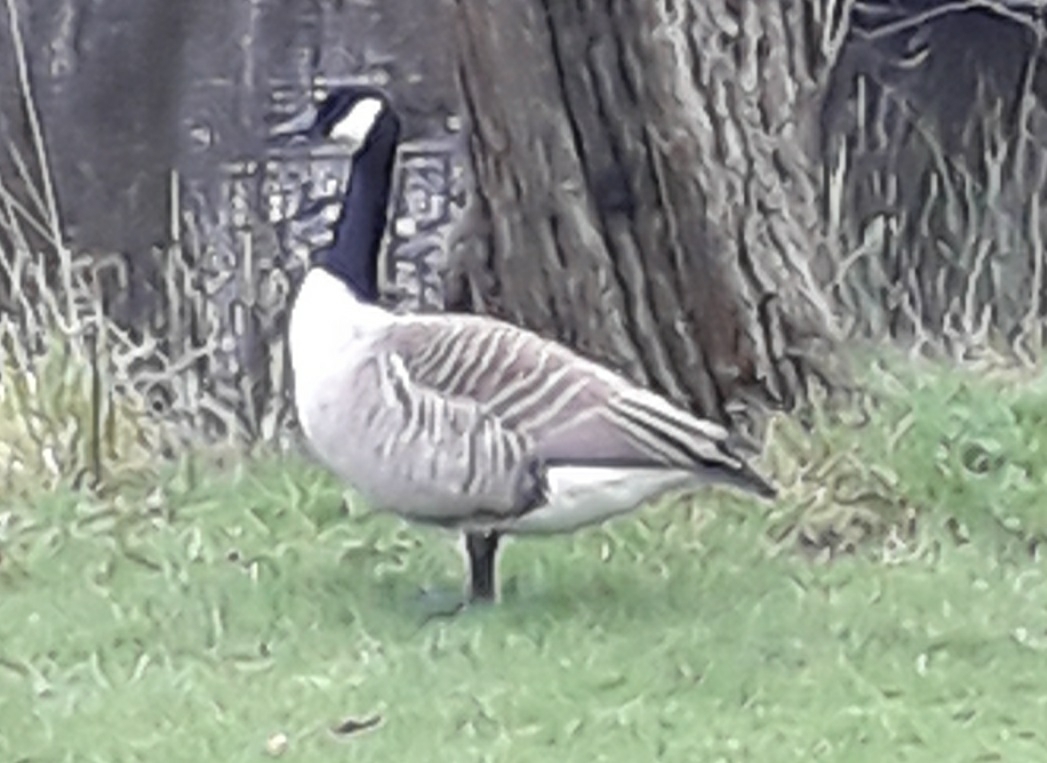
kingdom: Animalia
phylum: Chordata
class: Aves
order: Anseriformes
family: Anatidae
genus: Branta
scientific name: Branta canadensis
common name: Canada goose
